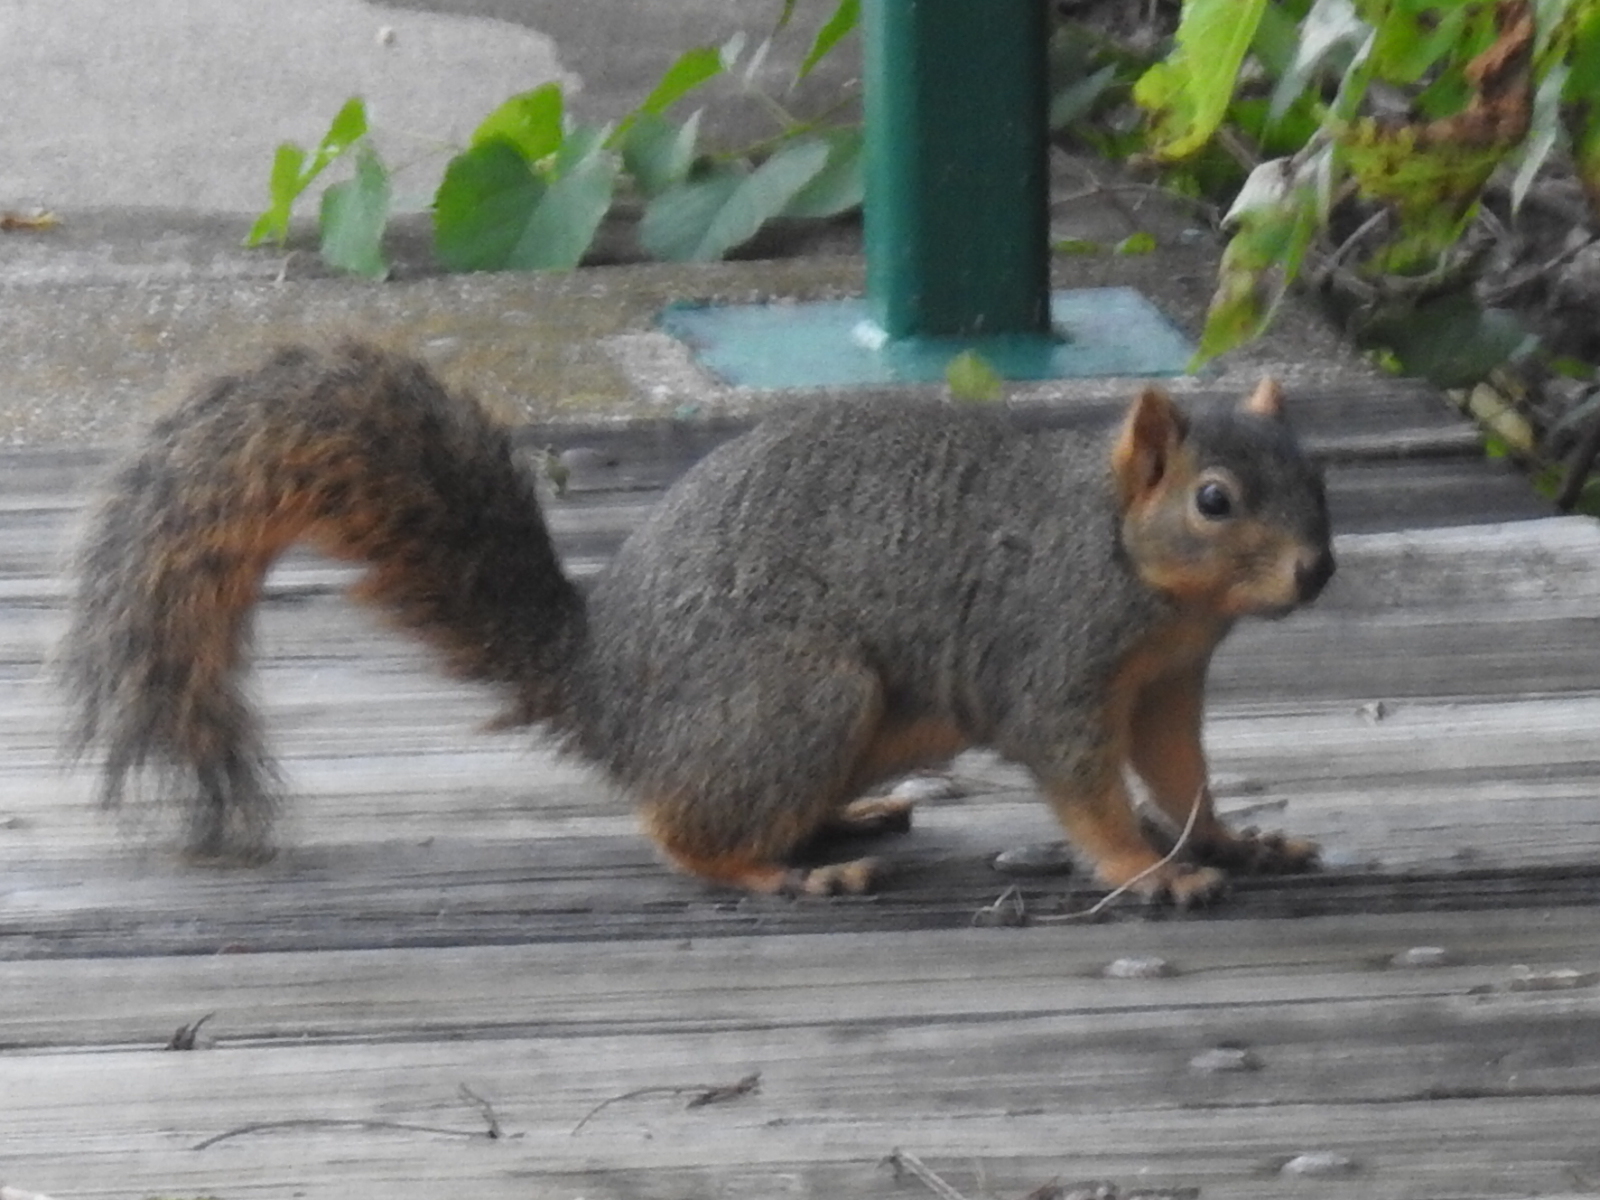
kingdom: Animalia
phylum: Chordata
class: Mammalia
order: Rodentia
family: Sciuridae
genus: Sciurus
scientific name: Sciurus niger
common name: Fox squirrel
